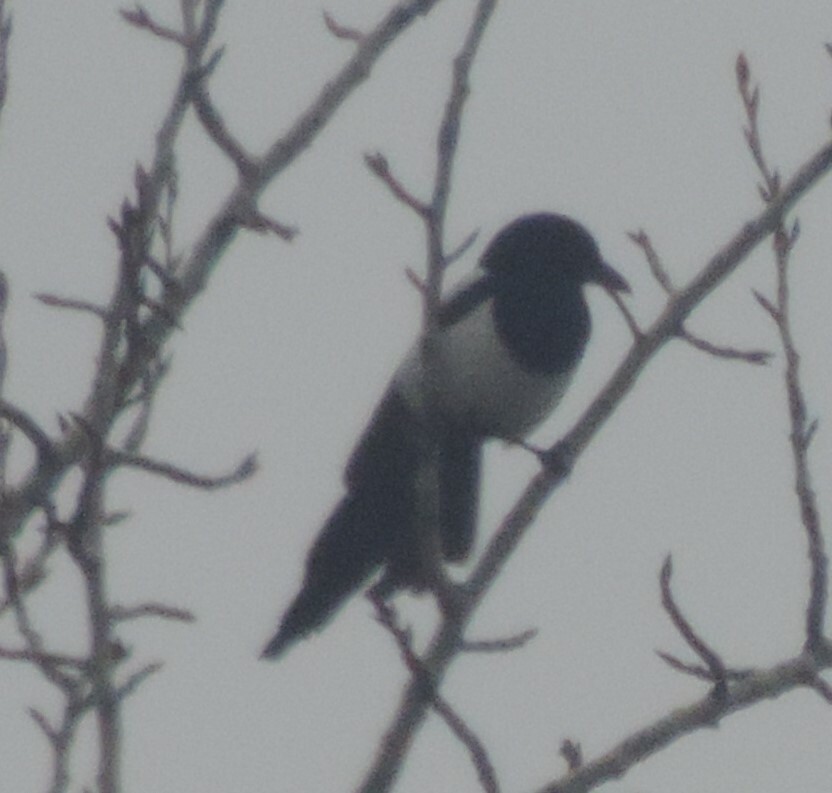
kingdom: Animalia
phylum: Chordata
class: Aves
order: Passeriformes
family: Corvidae
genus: Pica
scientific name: Pica hudsonia
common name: Black-billed magpie
